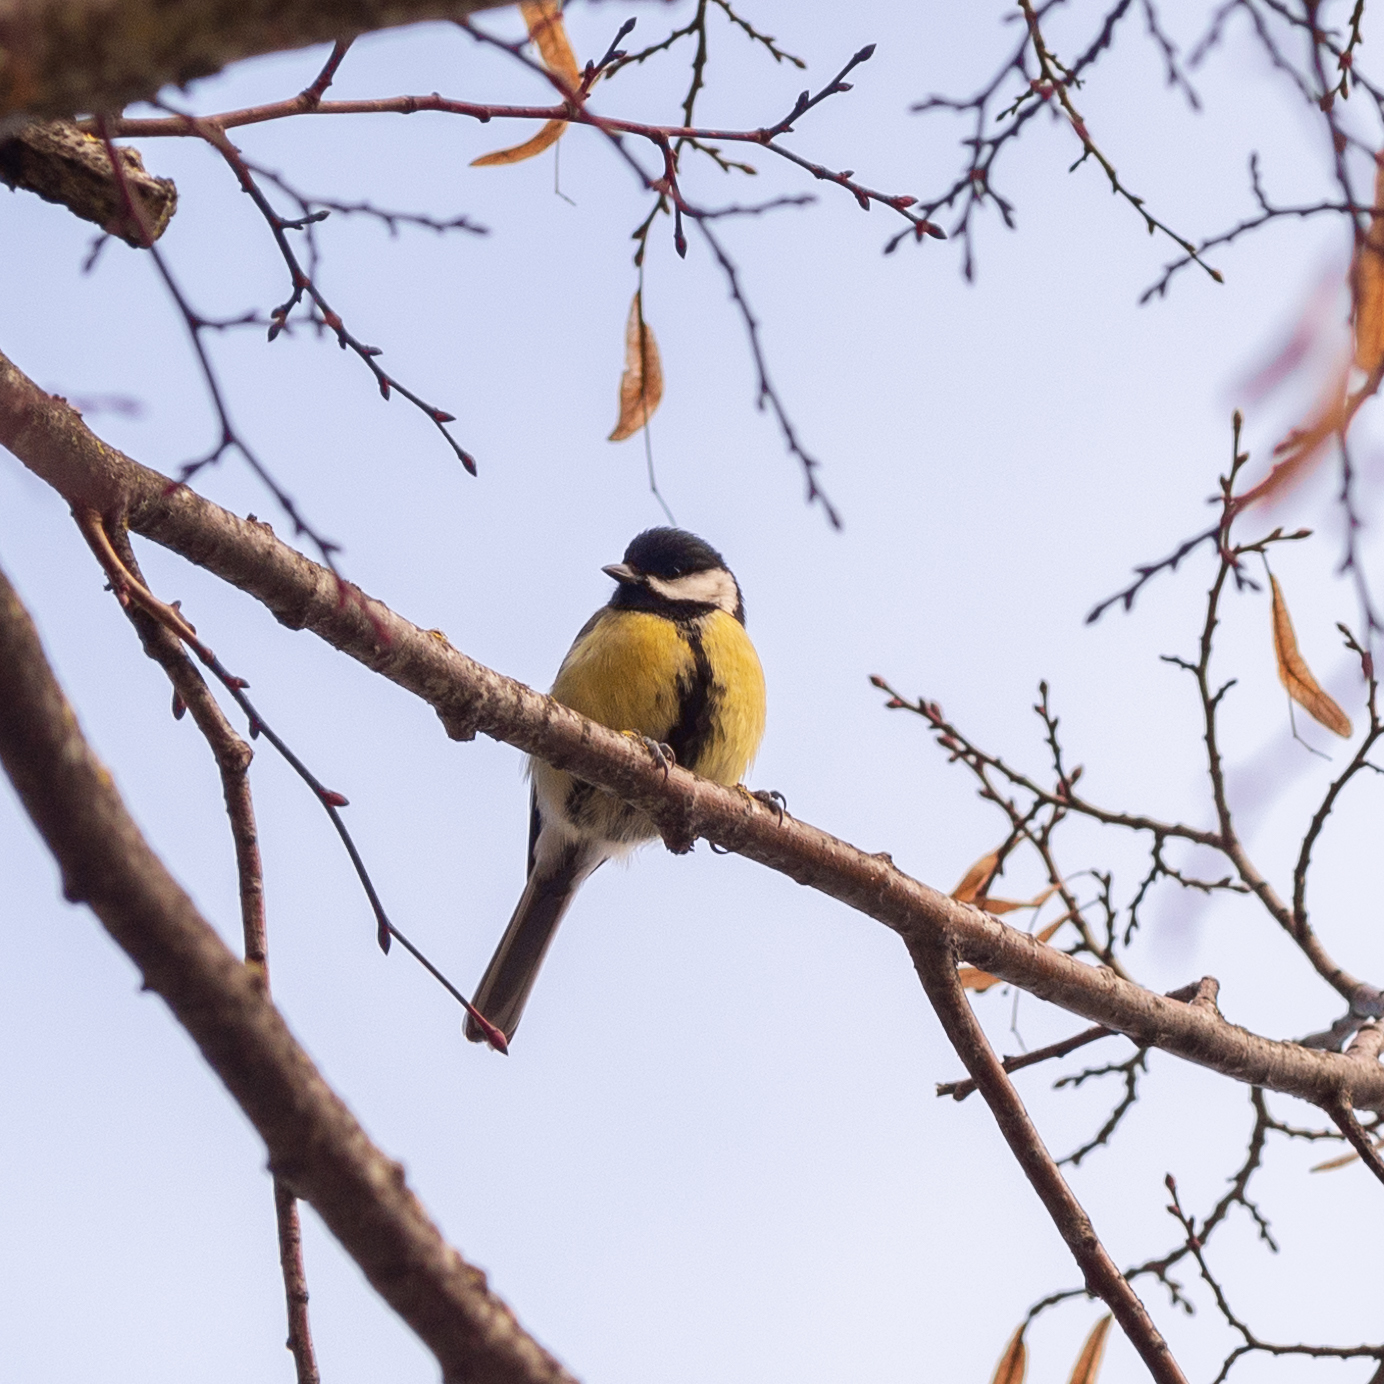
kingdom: Animalia
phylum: Chordata
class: Aves
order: Passeriformes
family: Paridae
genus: Parus
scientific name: Parus major
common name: Great tit
